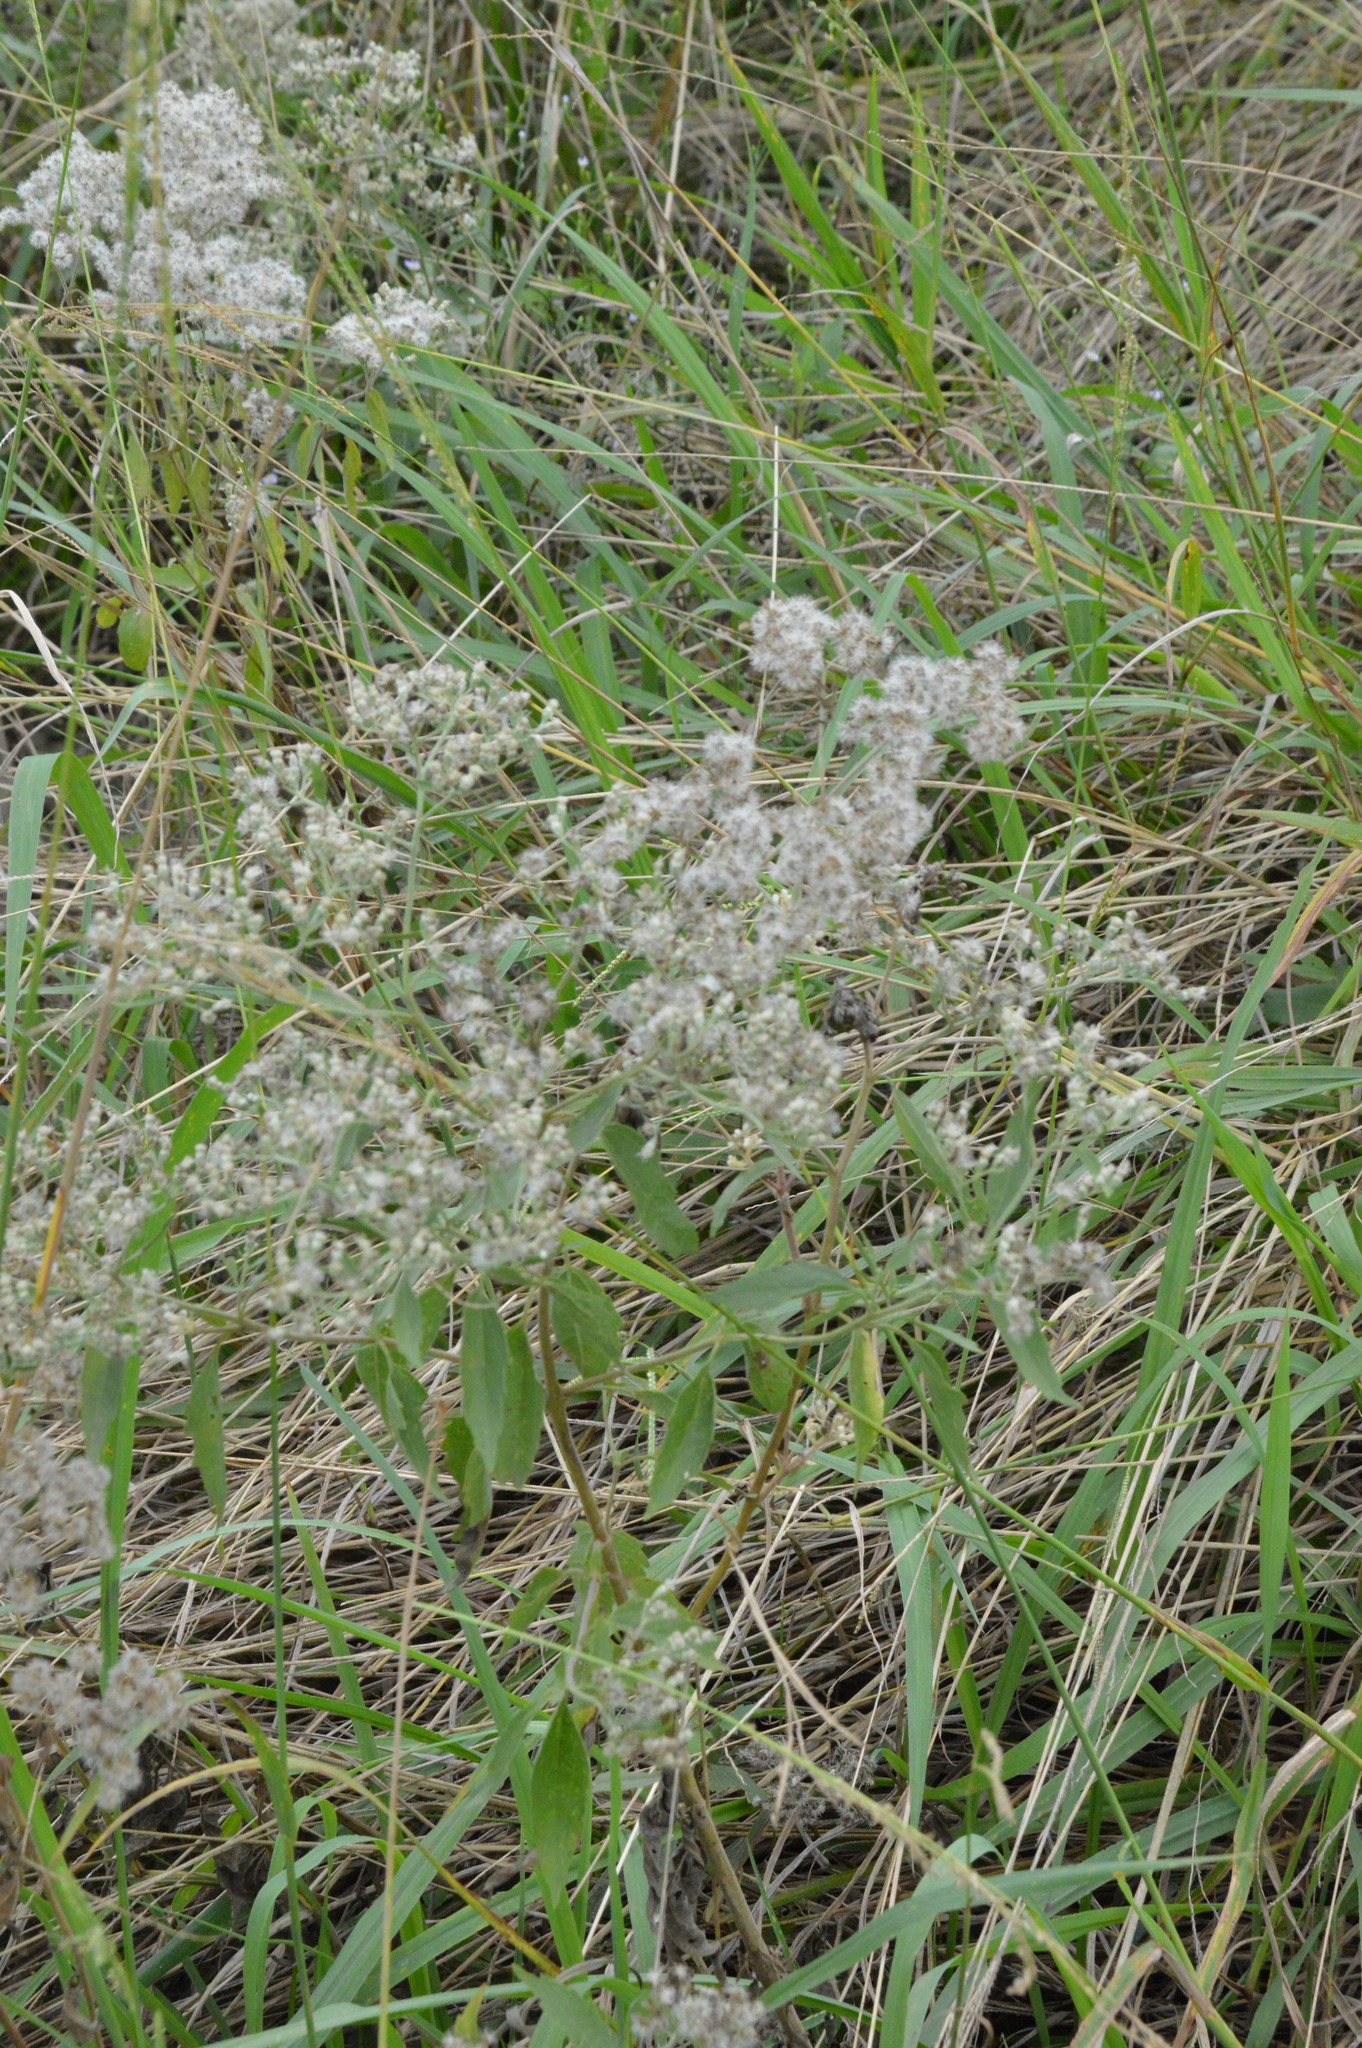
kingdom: Plantae
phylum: Tracheophyta
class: Magnoliopsida
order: Asterales
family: Asteraceae
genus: Eupatorium
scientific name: Eupatorium serotinum
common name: Late boneset
